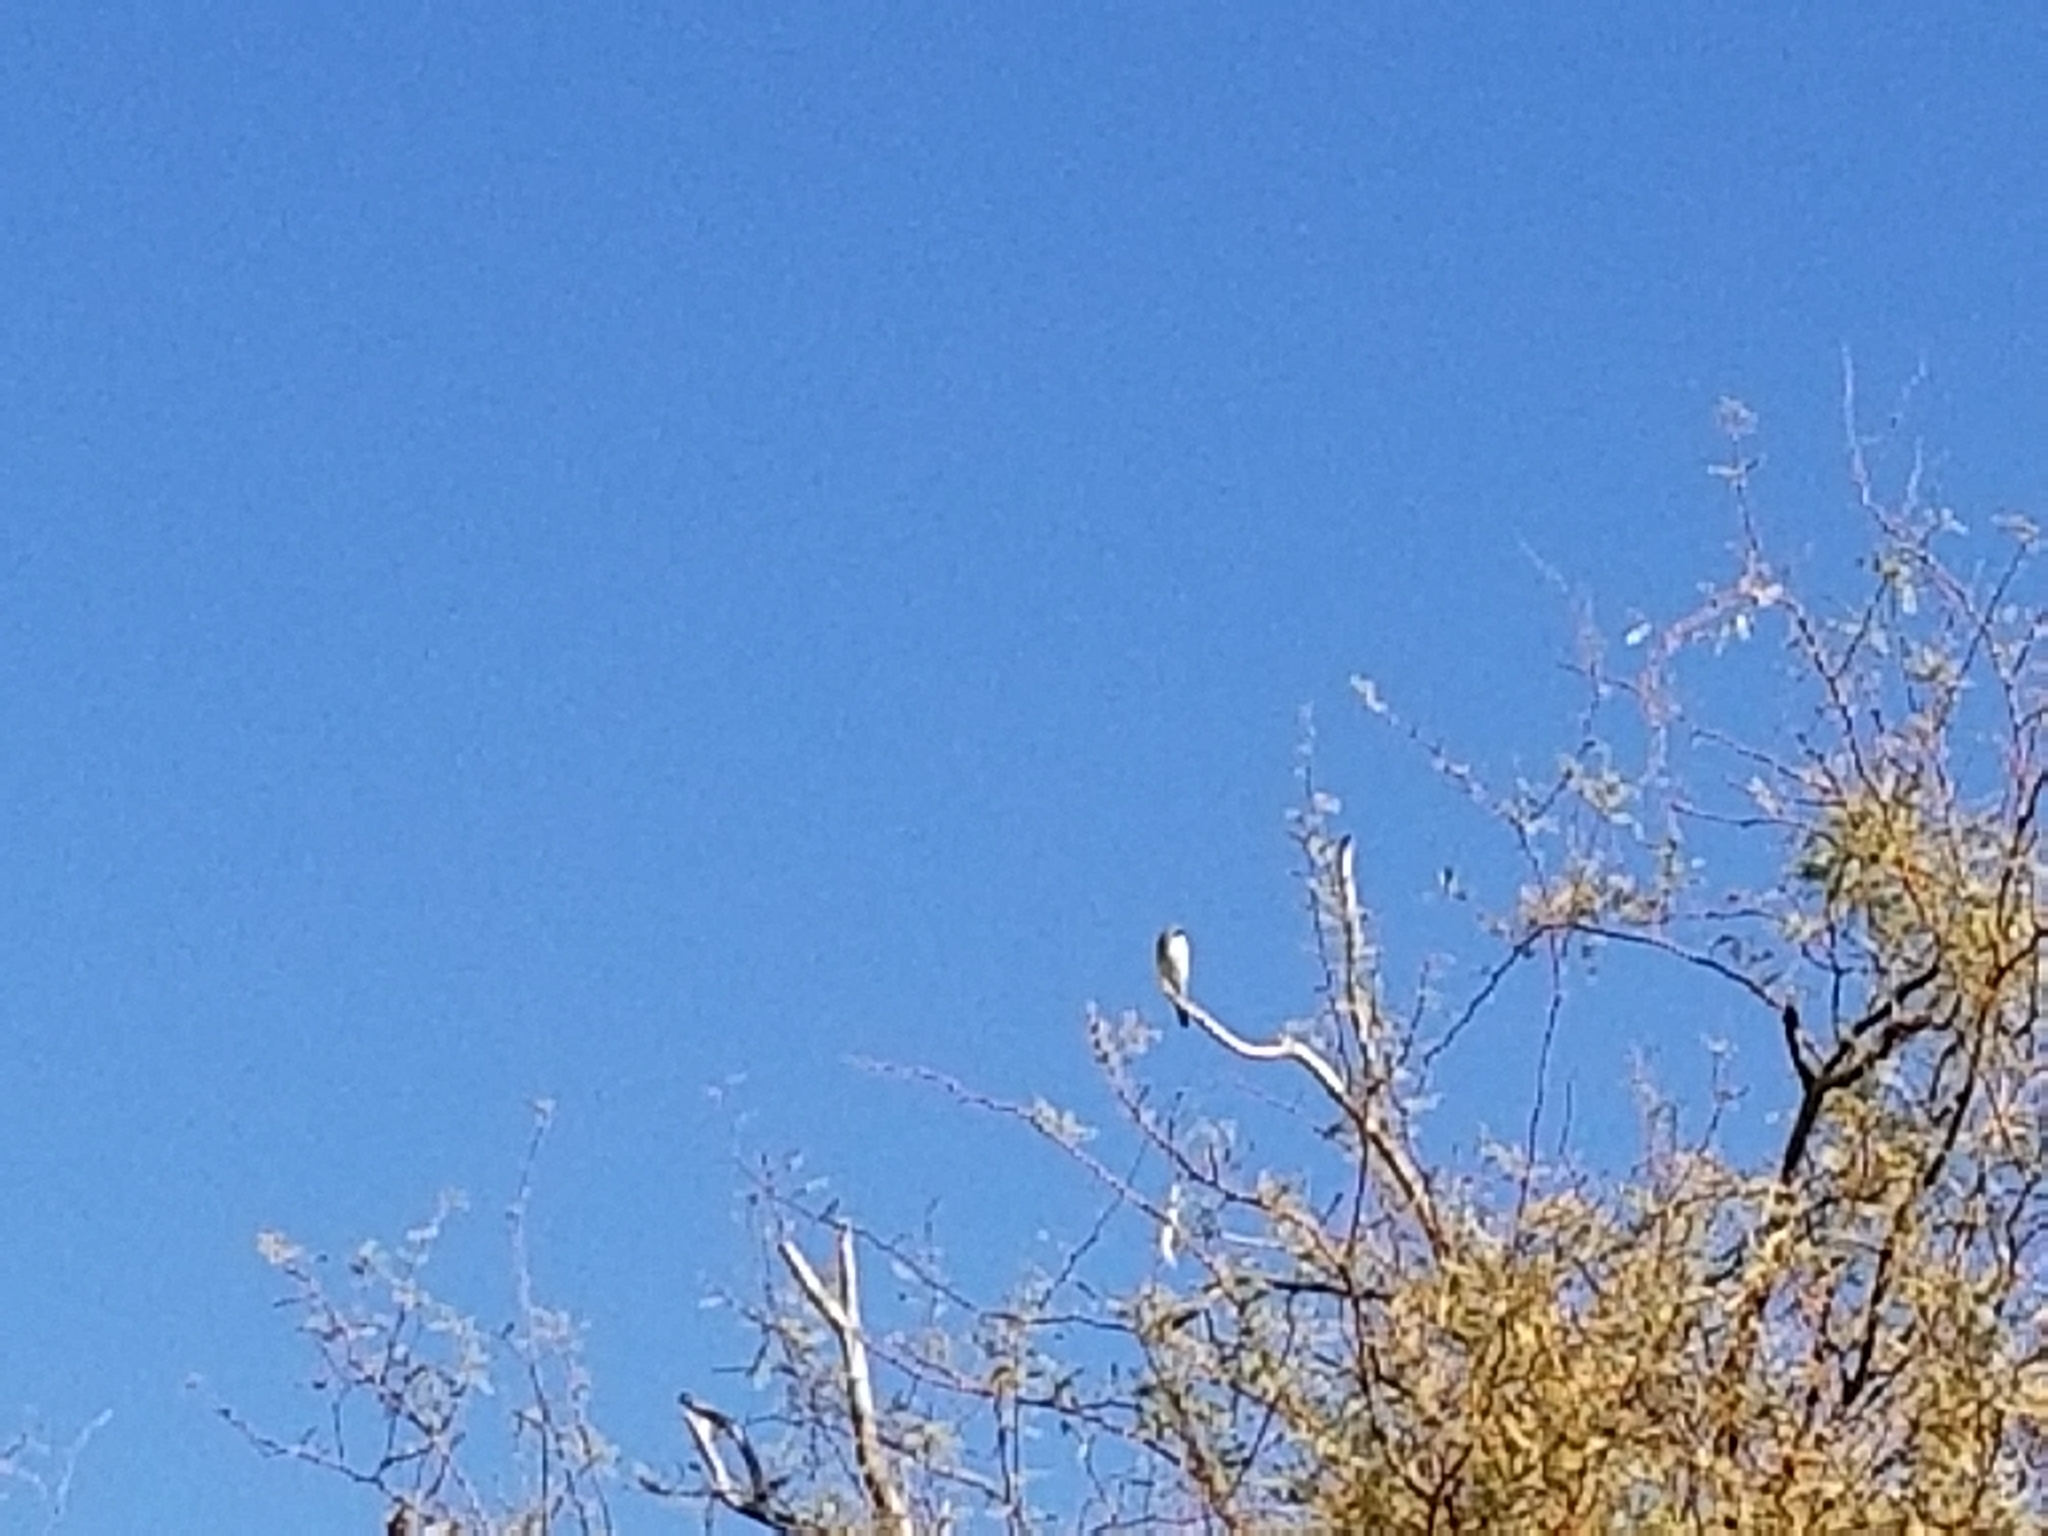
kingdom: Animalia
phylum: Chordata
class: Aves
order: Passeriformes
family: Laniidae
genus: Lanius
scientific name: Lanius ludovicianus
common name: Loggerhead shrike
